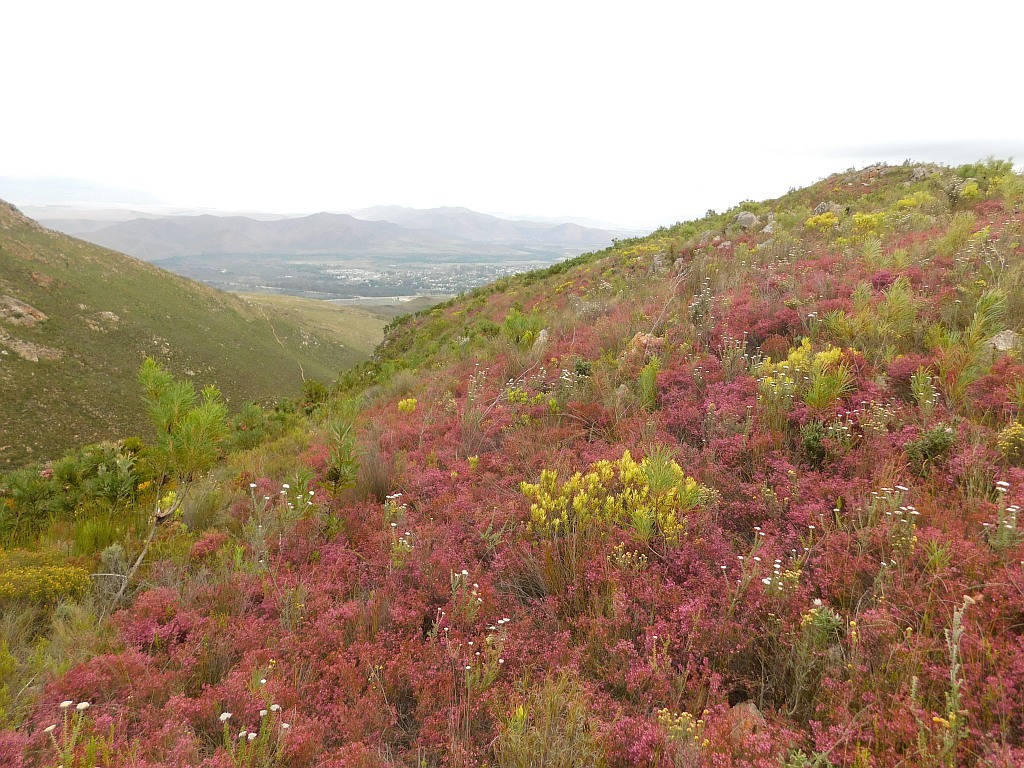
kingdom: Plantae
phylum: Tracheophyta
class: Magnoliopsida
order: Ericales
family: Ericaceae
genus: Erica
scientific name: Erica nudiflora
